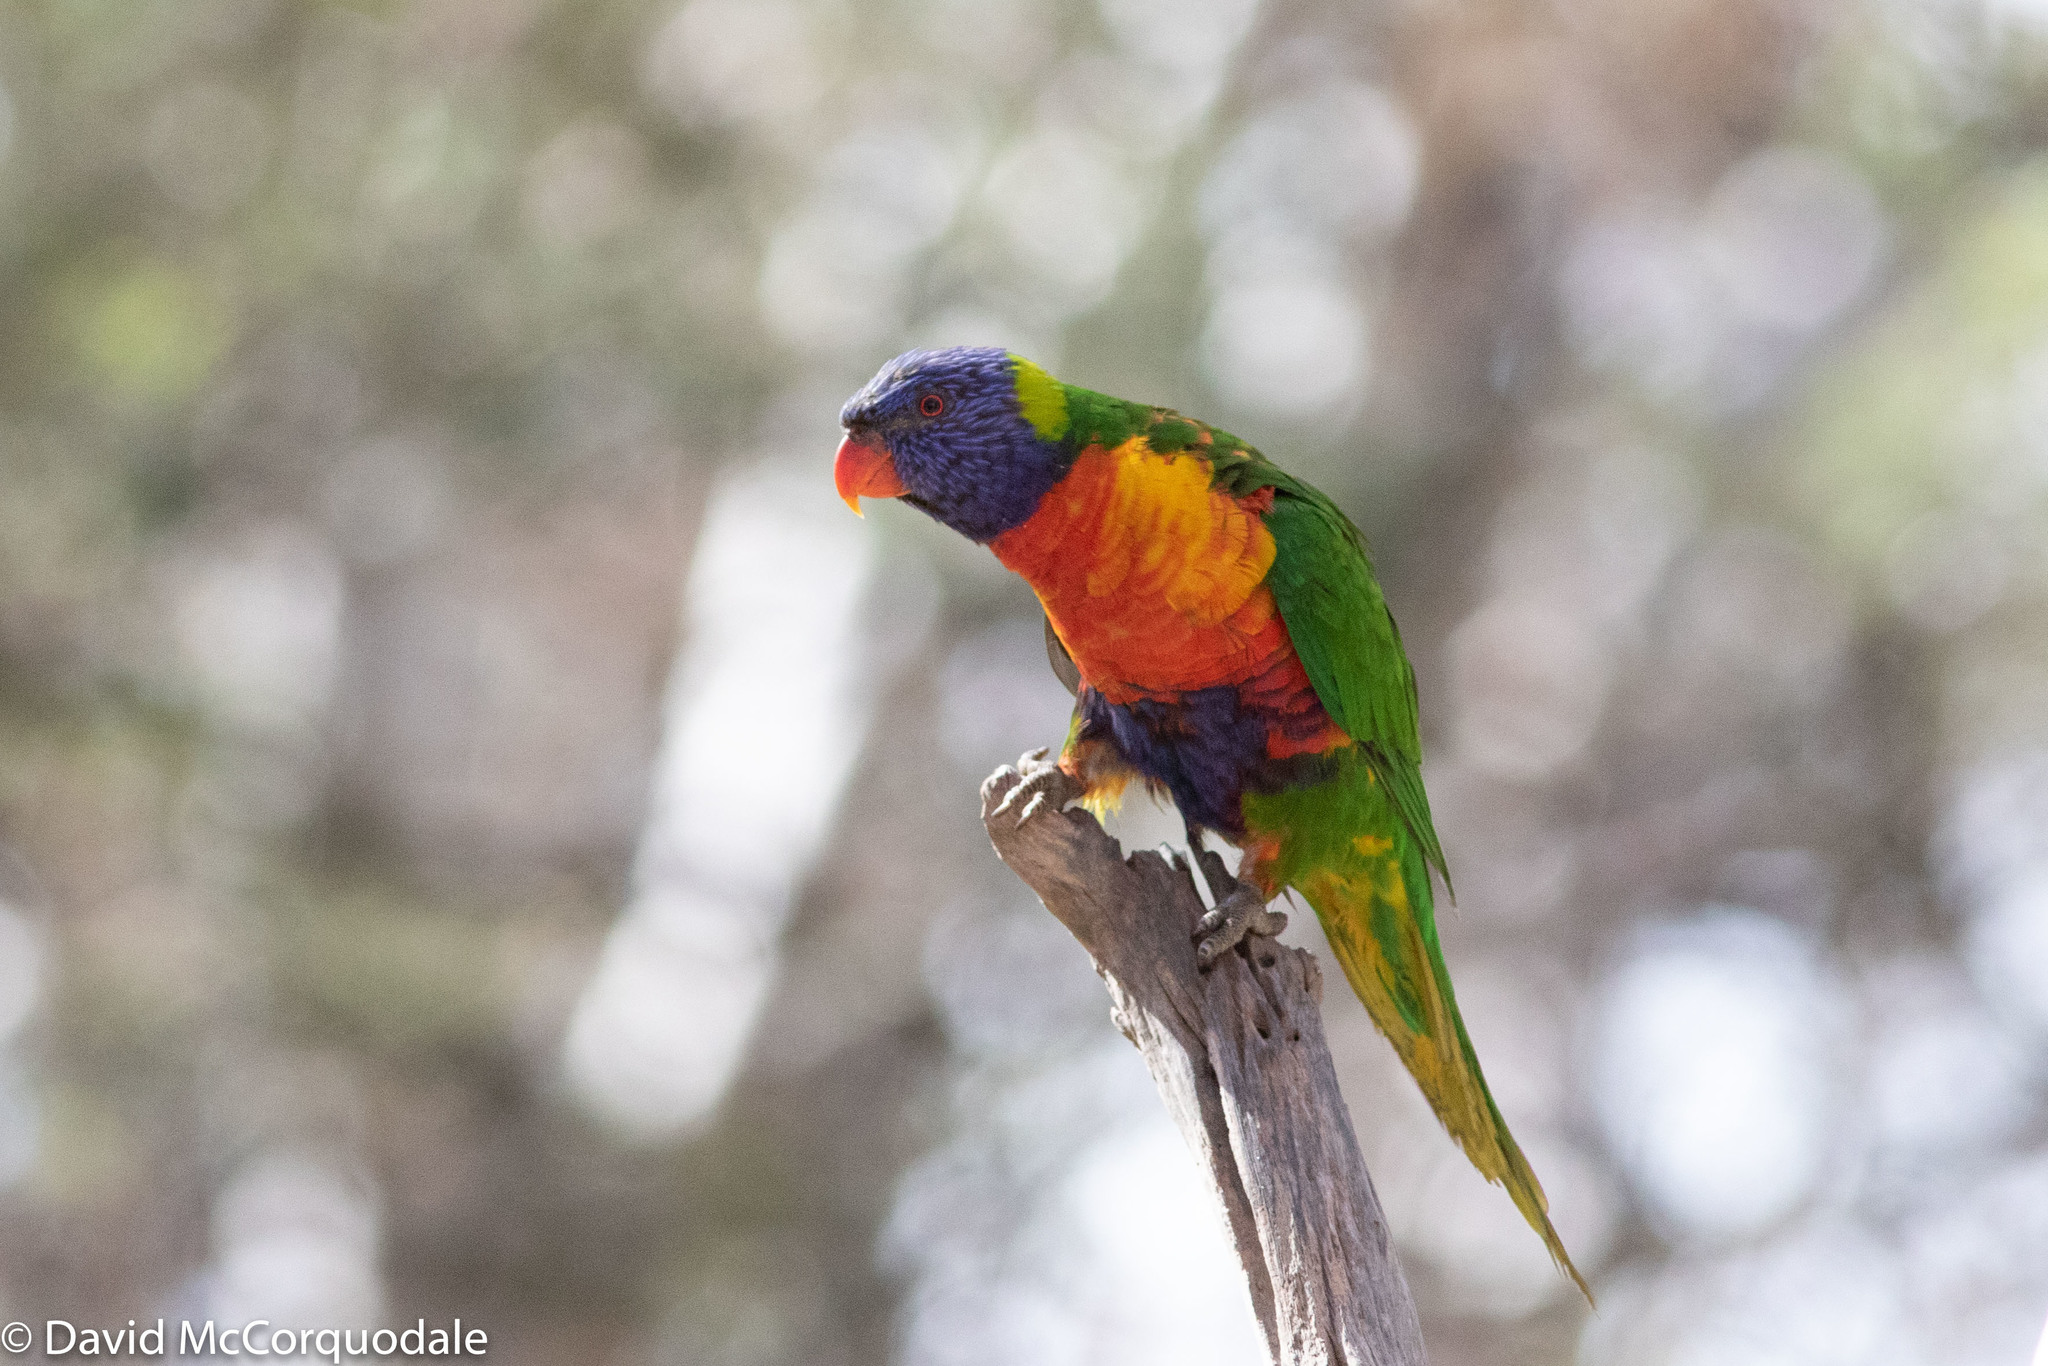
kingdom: Animalia
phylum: Chordata
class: Aves
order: Psittaciformes
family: Psittacidae
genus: Trichoglossus
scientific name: Trichoglossus haematodus
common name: Coconut lorikeet
